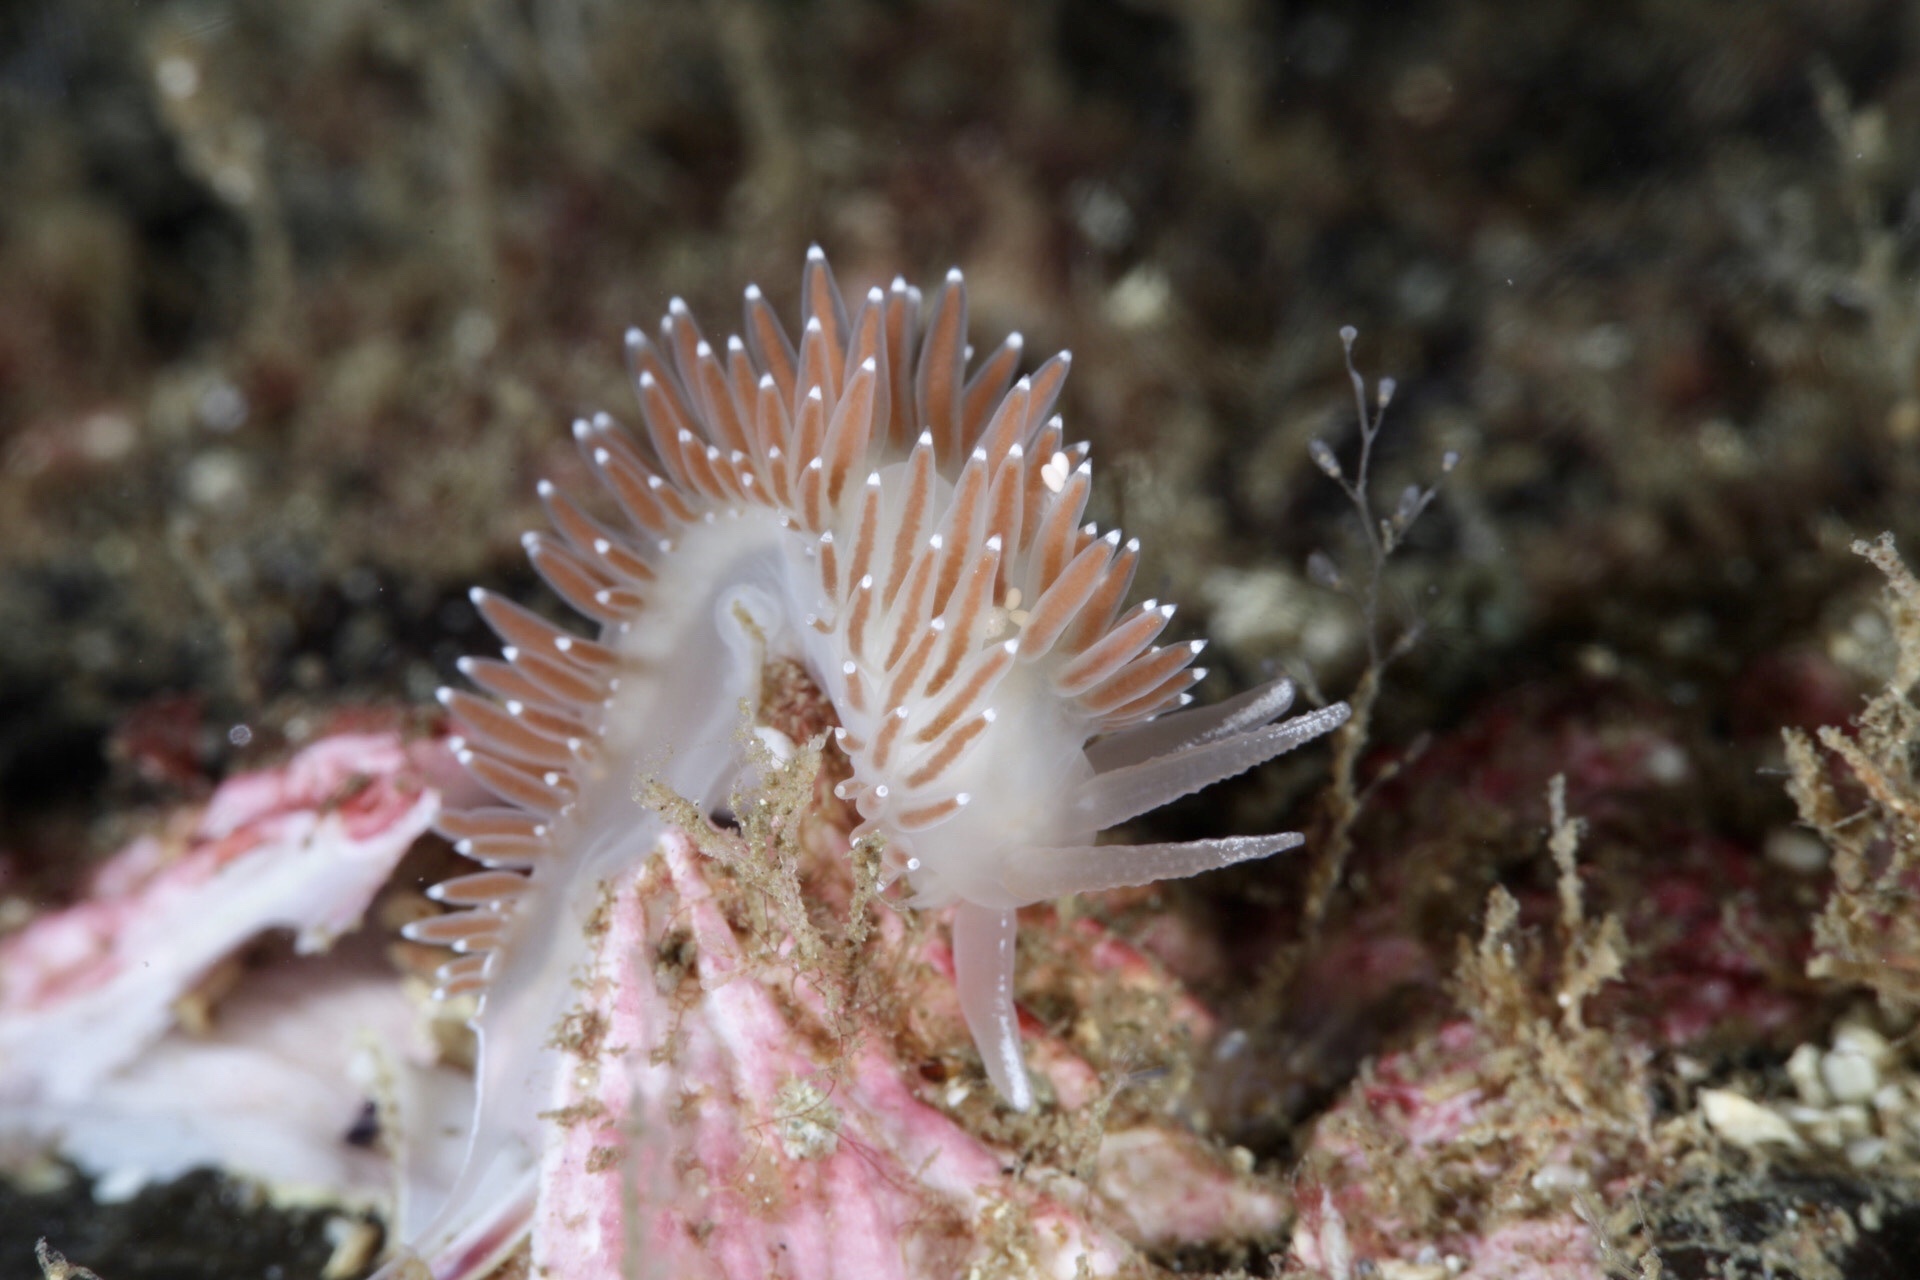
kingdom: Animalia
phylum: Mollusca
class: Gastropoda
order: Nudibranchia
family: Coryphellidae
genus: Coryphella
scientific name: Coryphella verrucosa
